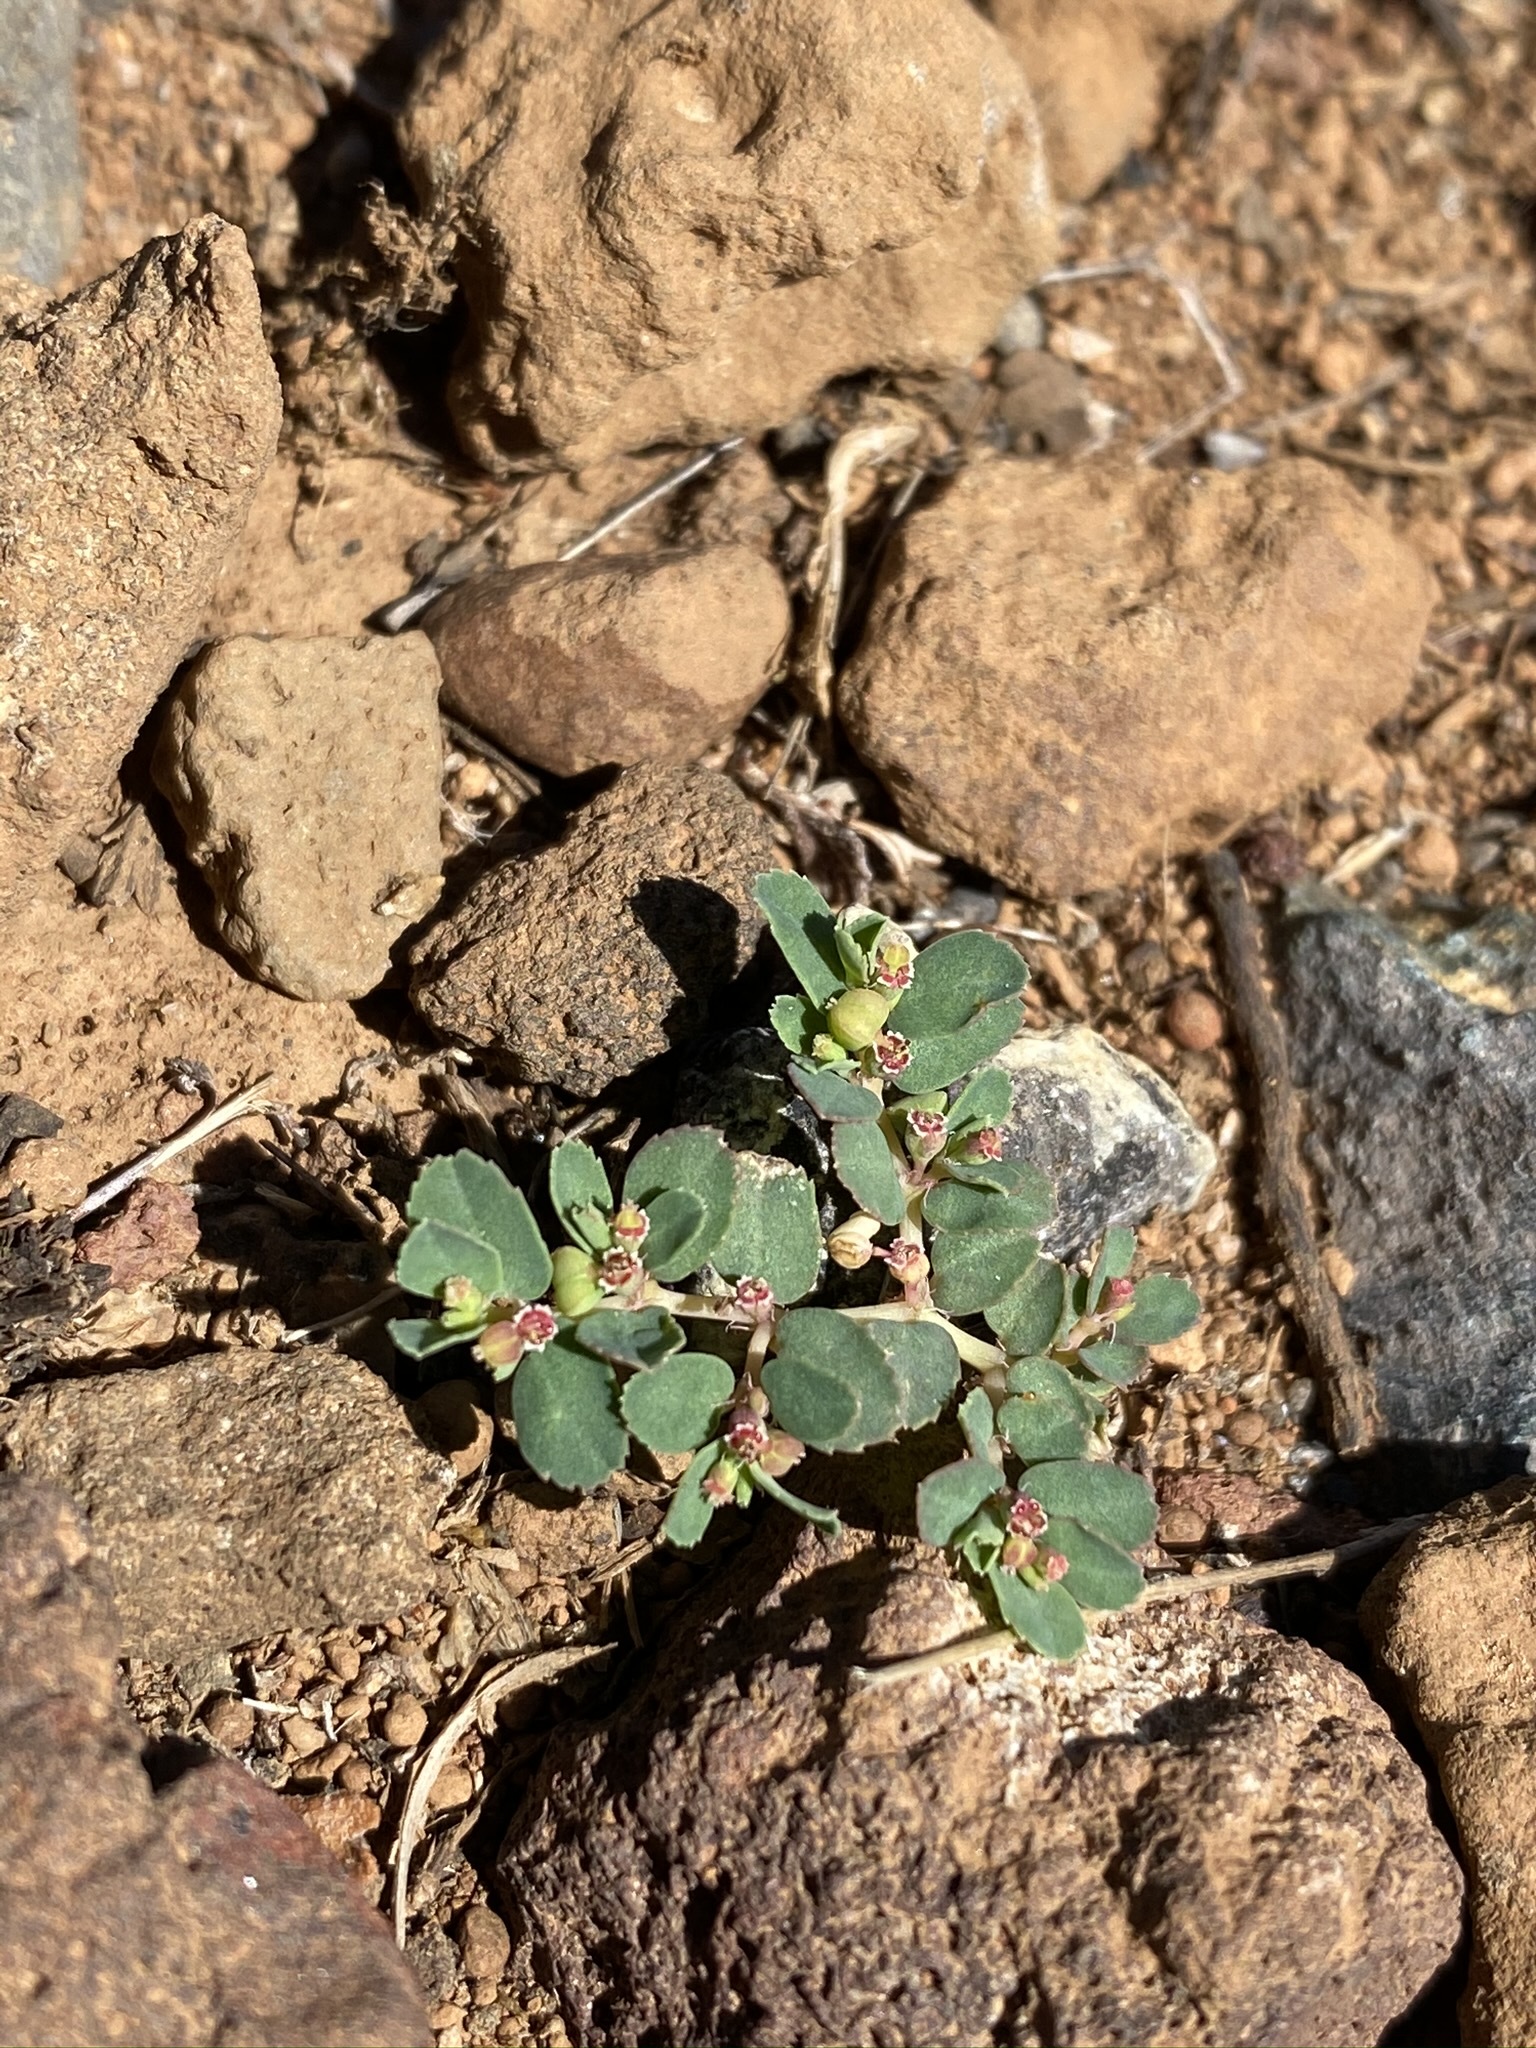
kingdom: Plantae
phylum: Tracheophyta
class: Magnoliopsida
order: Malpighiales
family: Euphorbiaceae
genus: Euphorbia
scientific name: Euphorbia serpillifolia
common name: Thyme-leaf spurge
